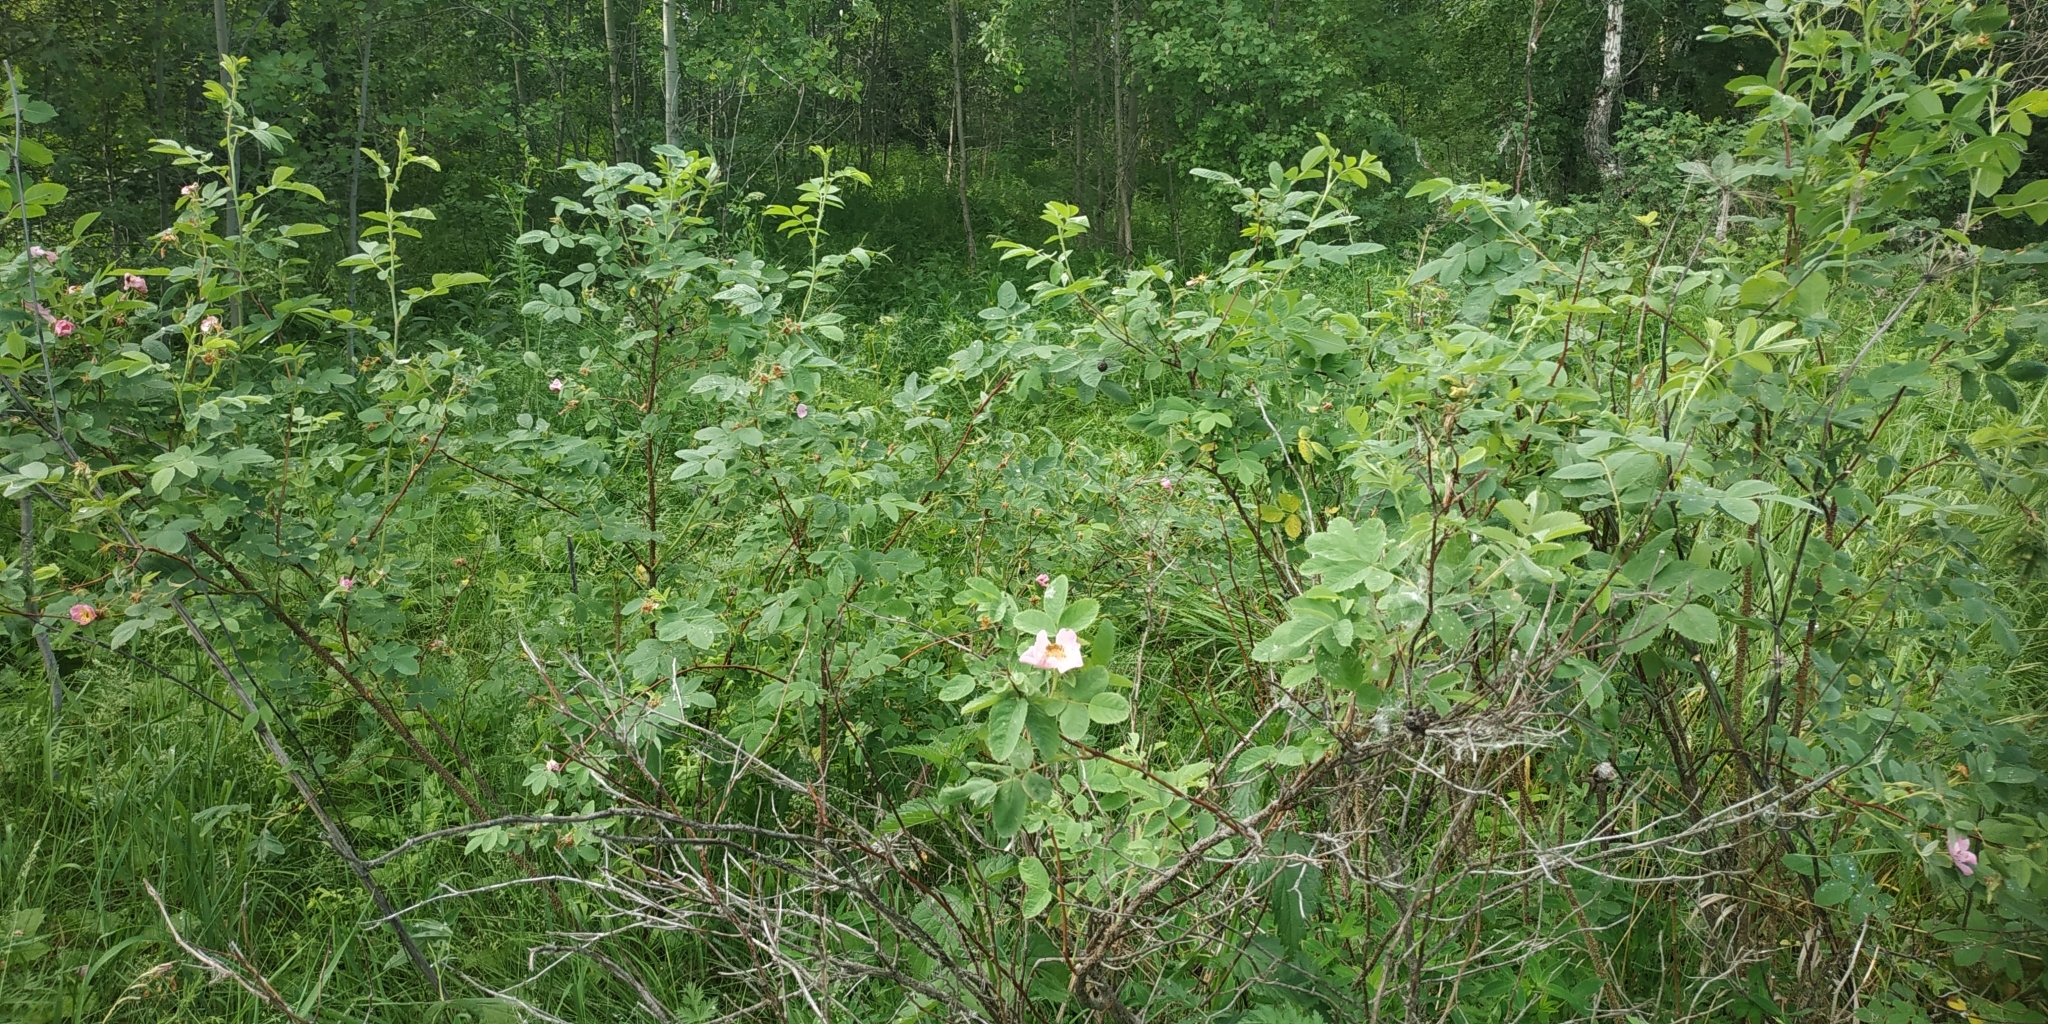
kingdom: Plantae
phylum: Tracheophyta
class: Magnoliopsida
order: Rosales
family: Rosaceae
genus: Rosa
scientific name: Rosa majalis
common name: Cinnamon rose
